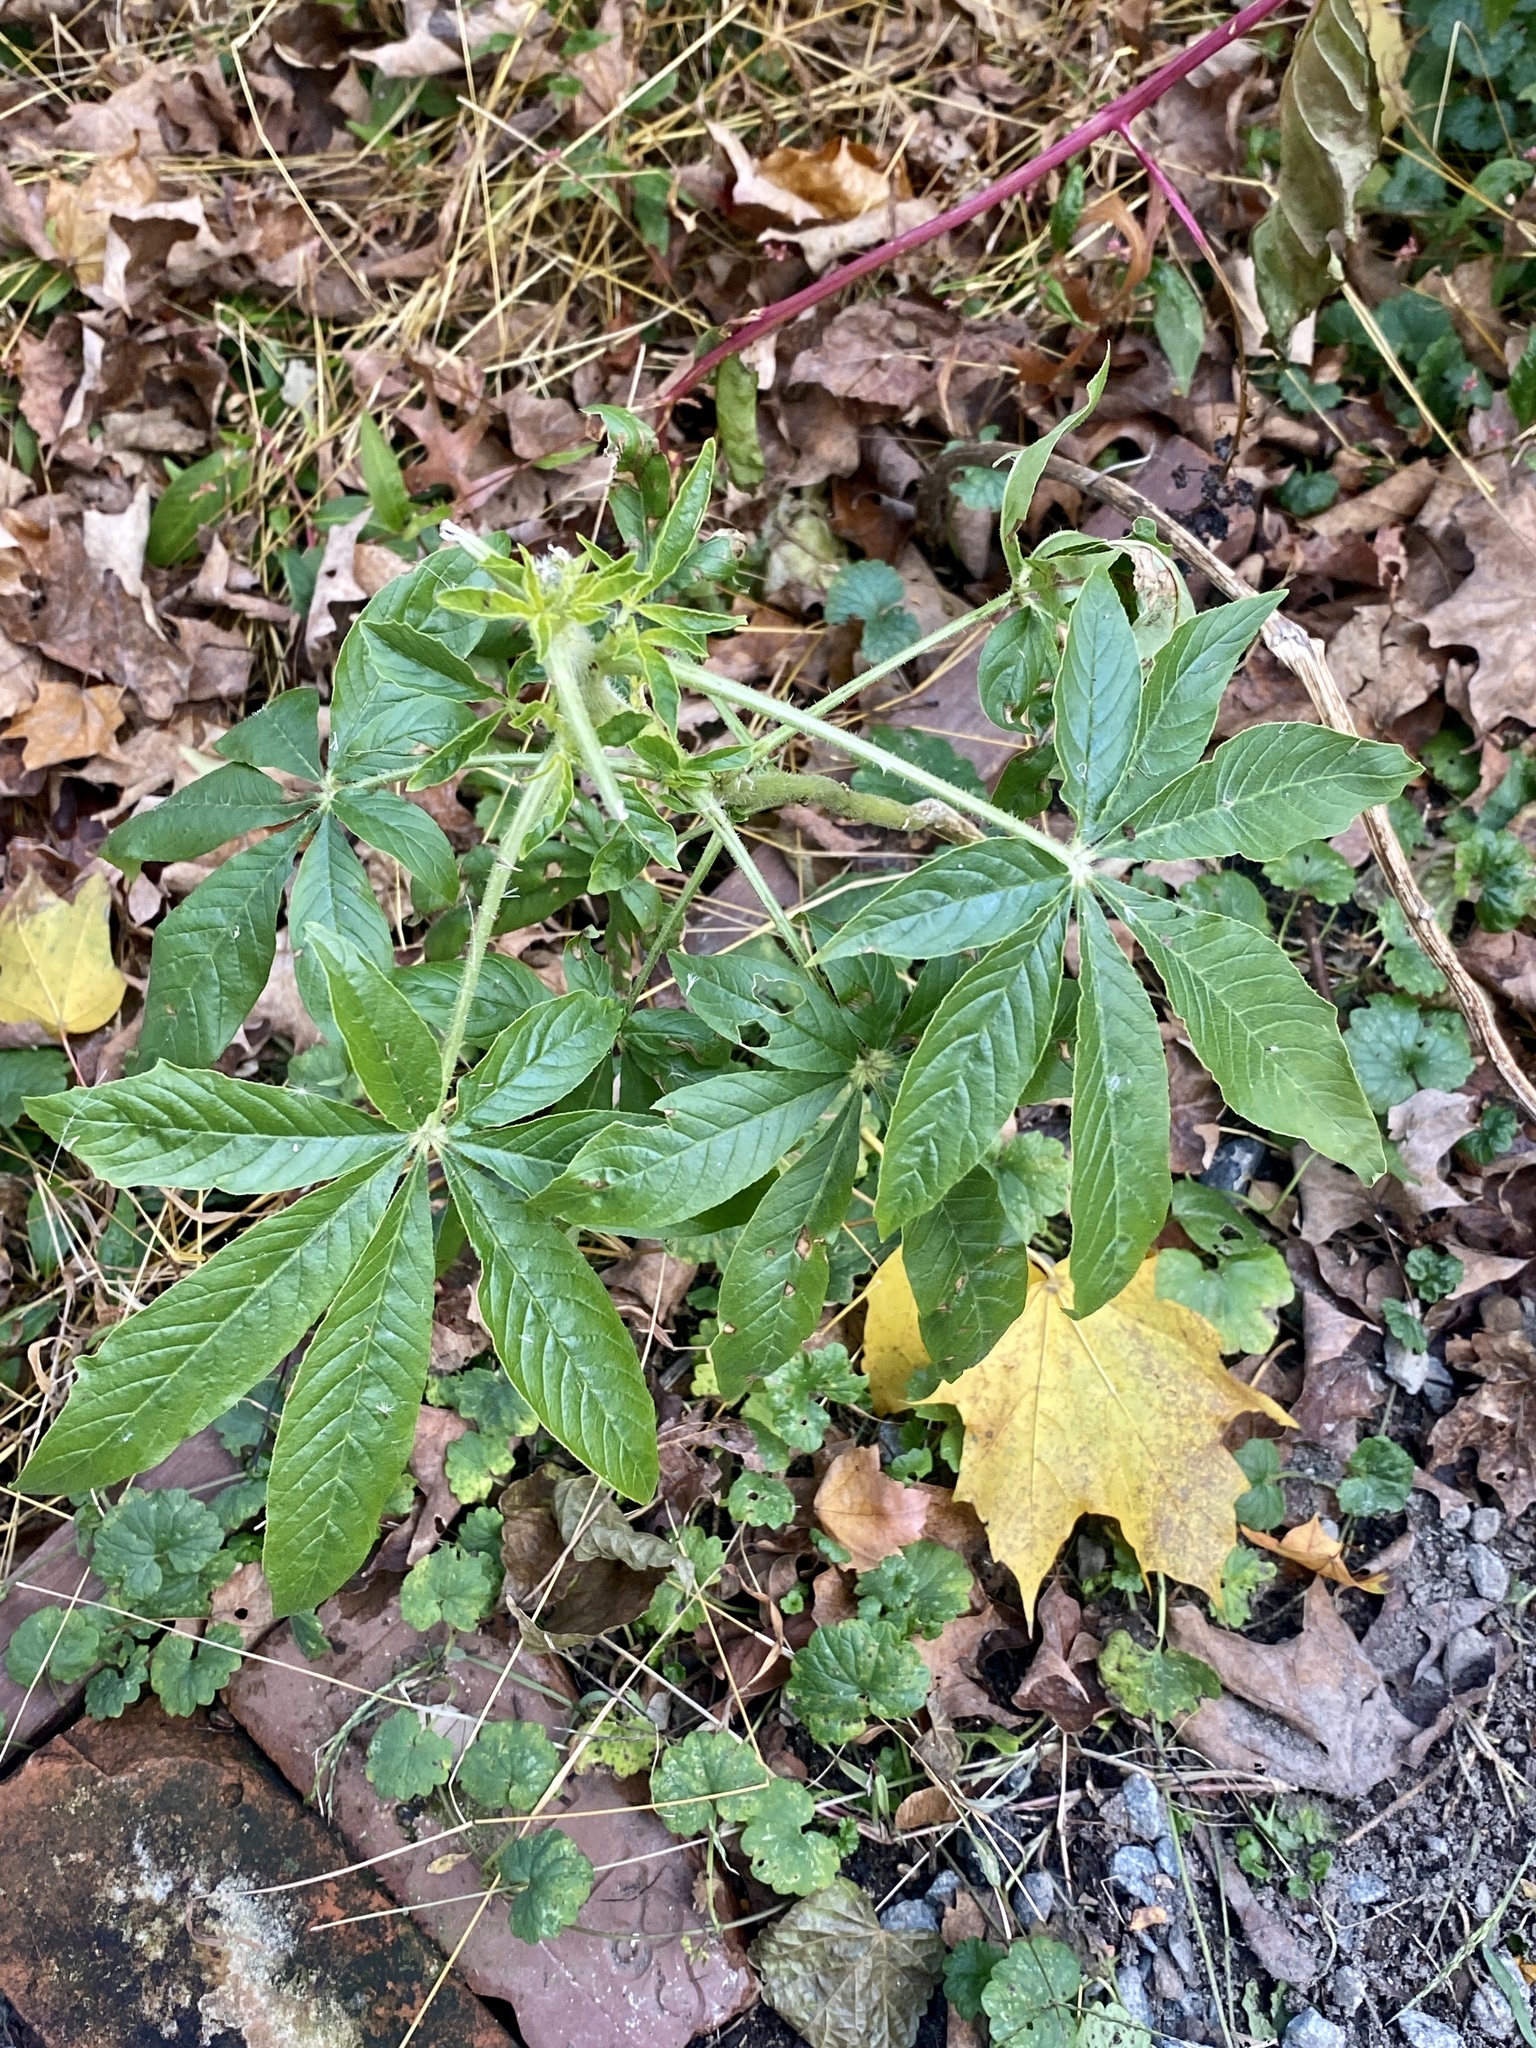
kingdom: Plantae
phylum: Tracheophyta
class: Magnoliopsida
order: Brassicales
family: Cleomaceae
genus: Tarenaya
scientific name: Tarenaya houtteana
